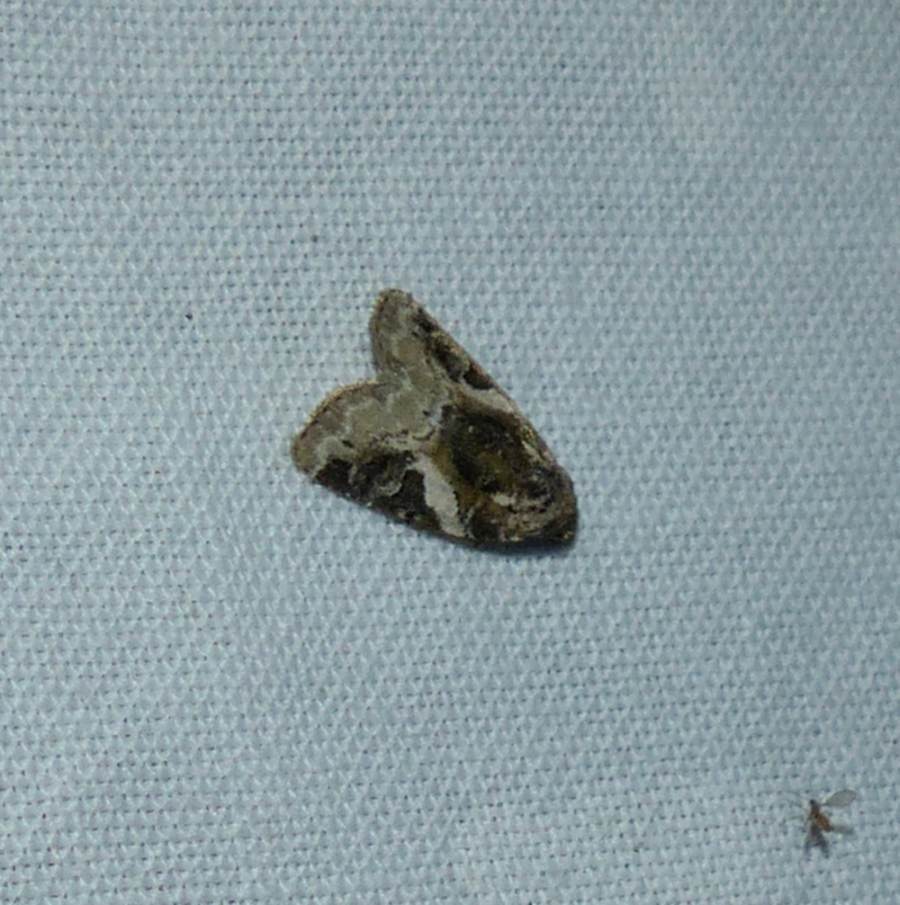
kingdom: Animalia
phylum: Arthropoda
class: Insecta
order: Lepidoptera
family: Noctuidae
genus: Pseudeustrotia
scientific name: Pseudeustrotia carneola
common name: Pink-barred lithacodia moth
